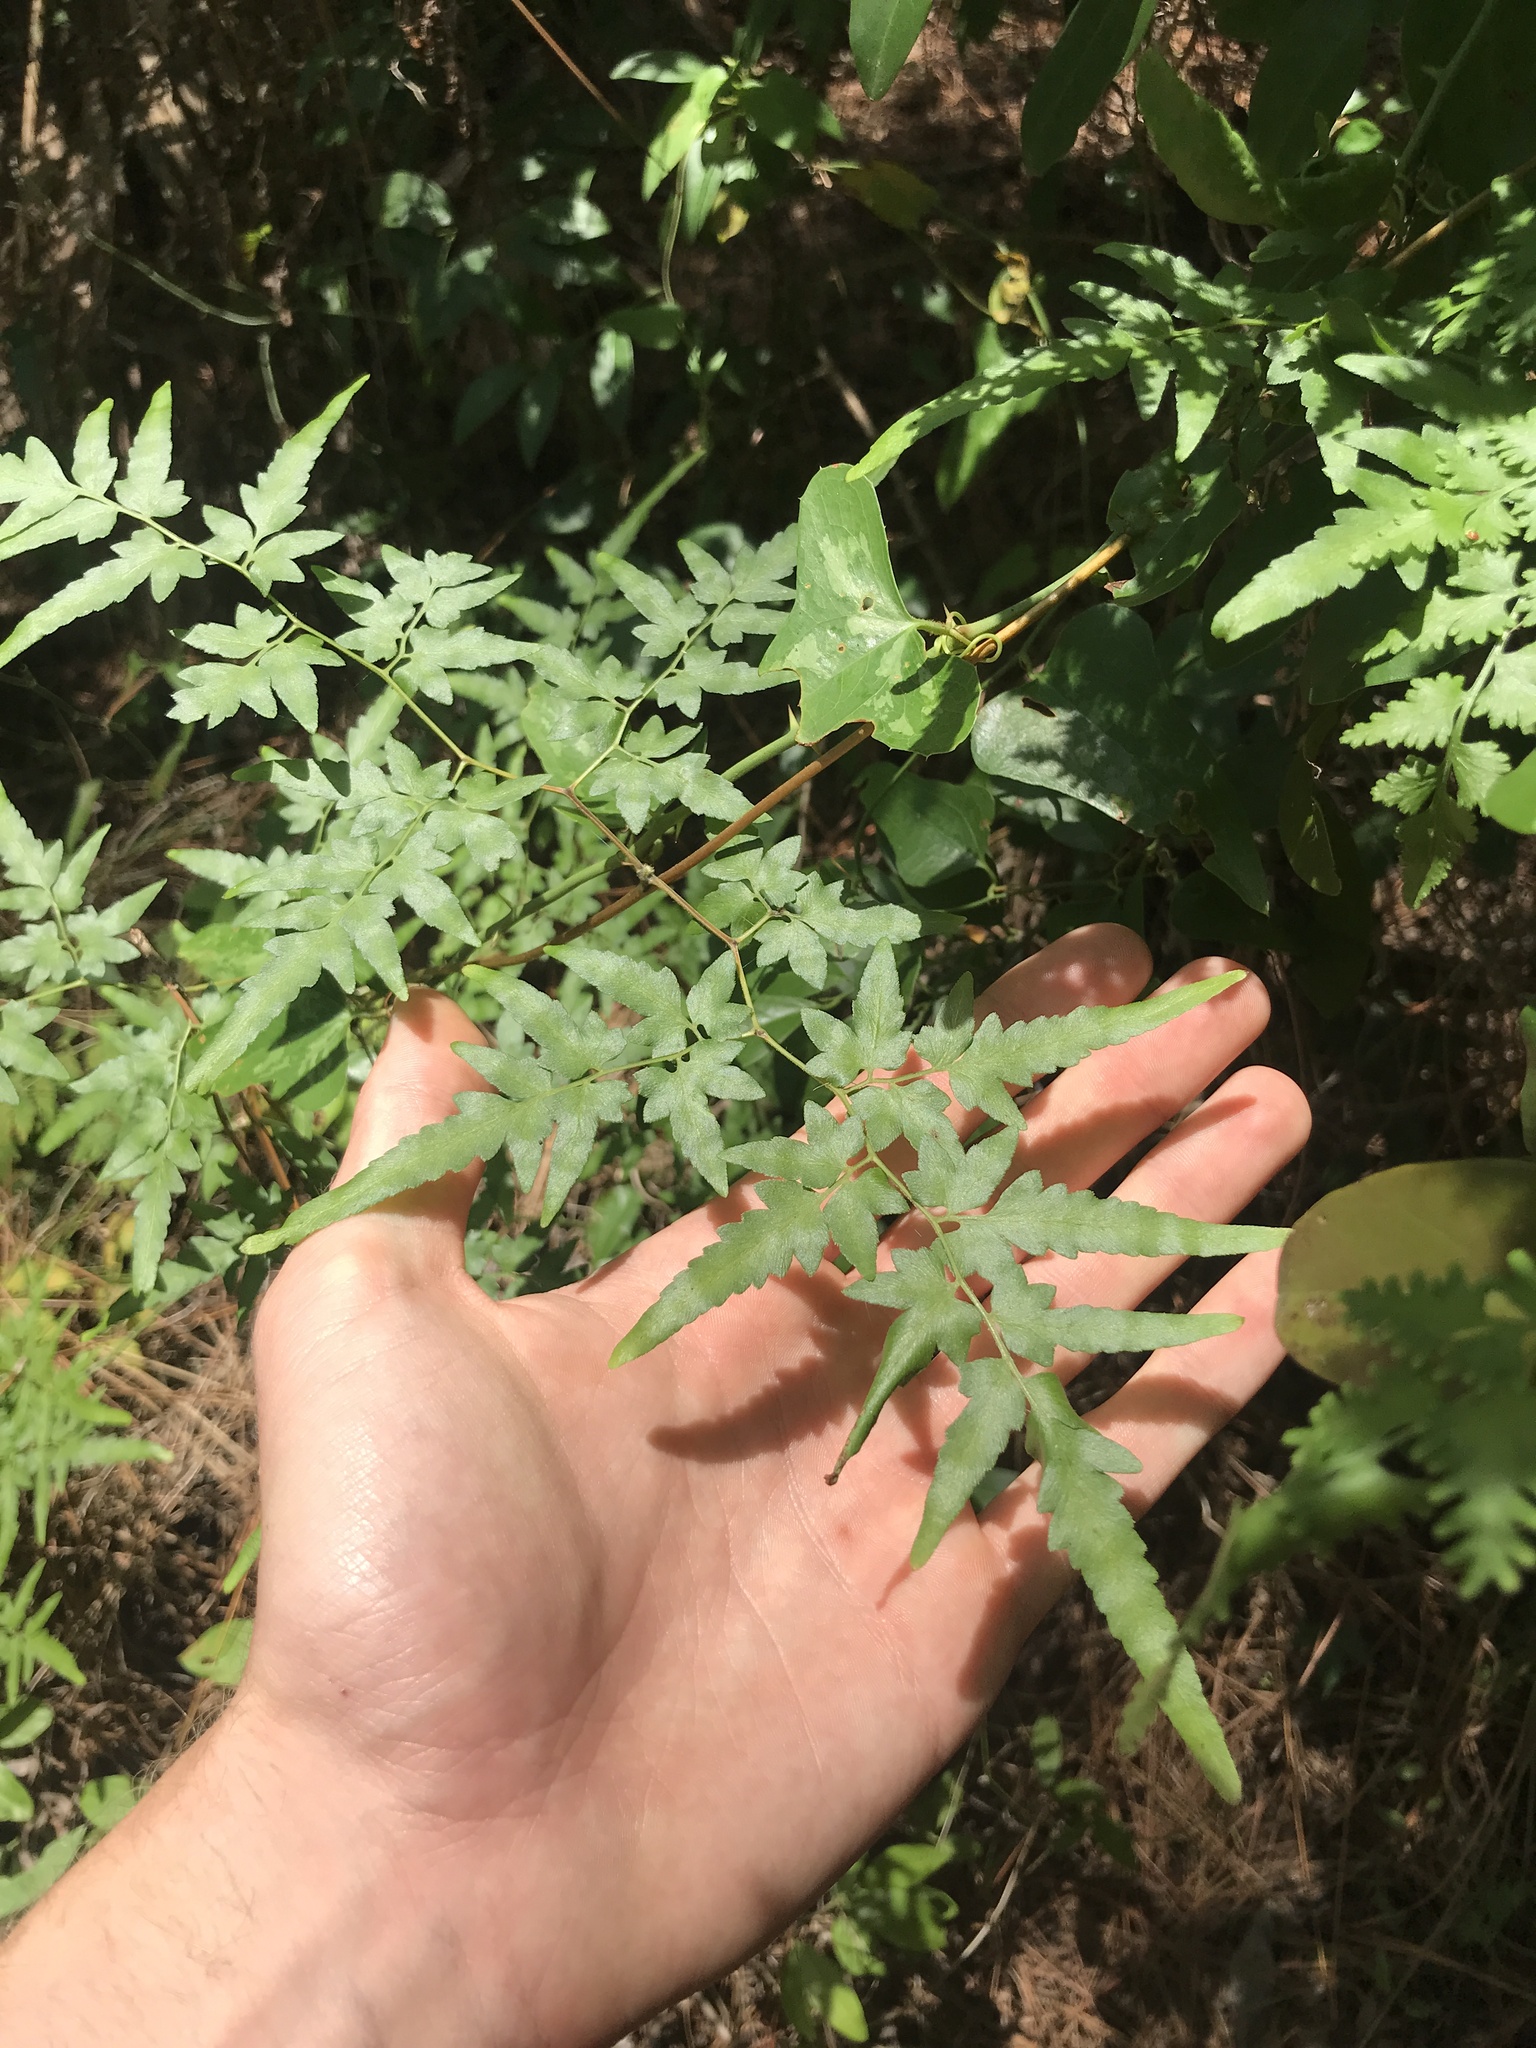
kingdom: Plantae
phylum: Tracheophyta
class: Polypodiopsida
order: Schizaeales
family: Lygodiaceae
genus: Lygodium
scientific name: Lygodium japonicum
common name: Japanese climbing fern
